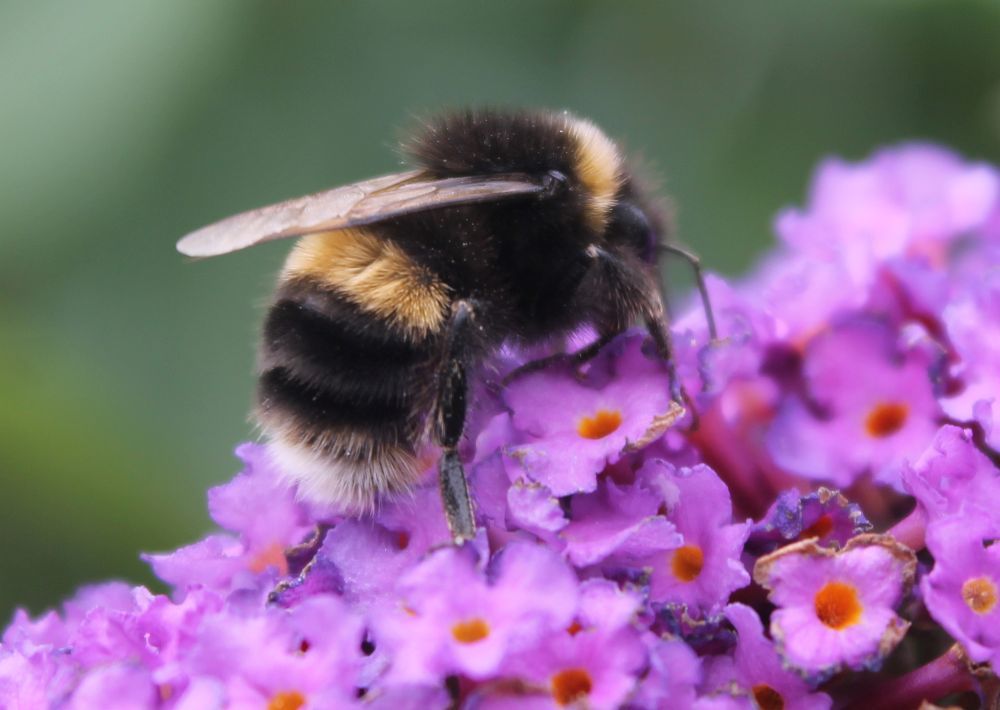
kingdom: Animalia
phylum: Arthropoda
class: Insecta
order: Hymenoptera
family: Apidae
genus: Bombus
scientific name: Bombus terrestris
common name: Buff-tailed bumblebee
